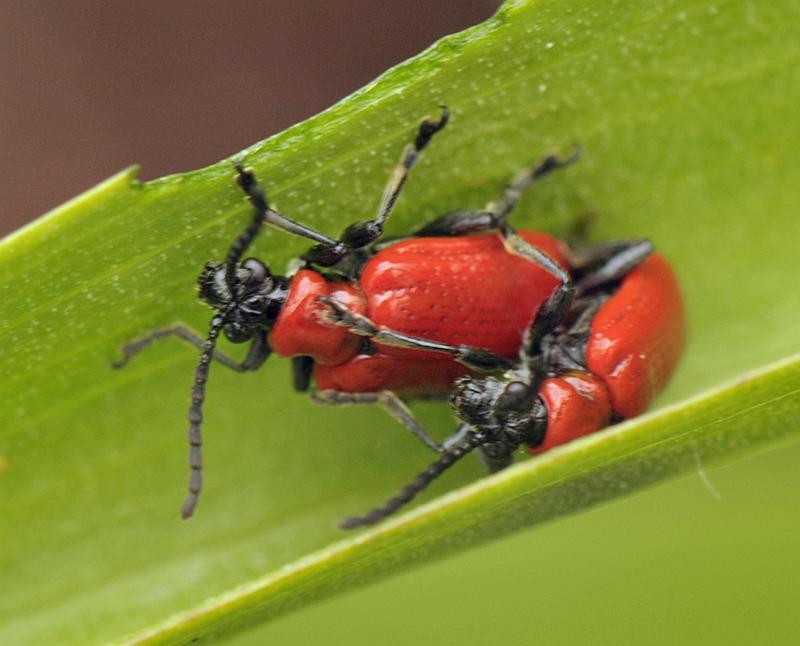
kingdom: Animalia
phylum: Arthropoda
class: Insecta
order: Coleoptera
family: Chrysomelidae
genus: Lilioceris
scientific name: Lilioceris lilii
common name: Lily beetle
